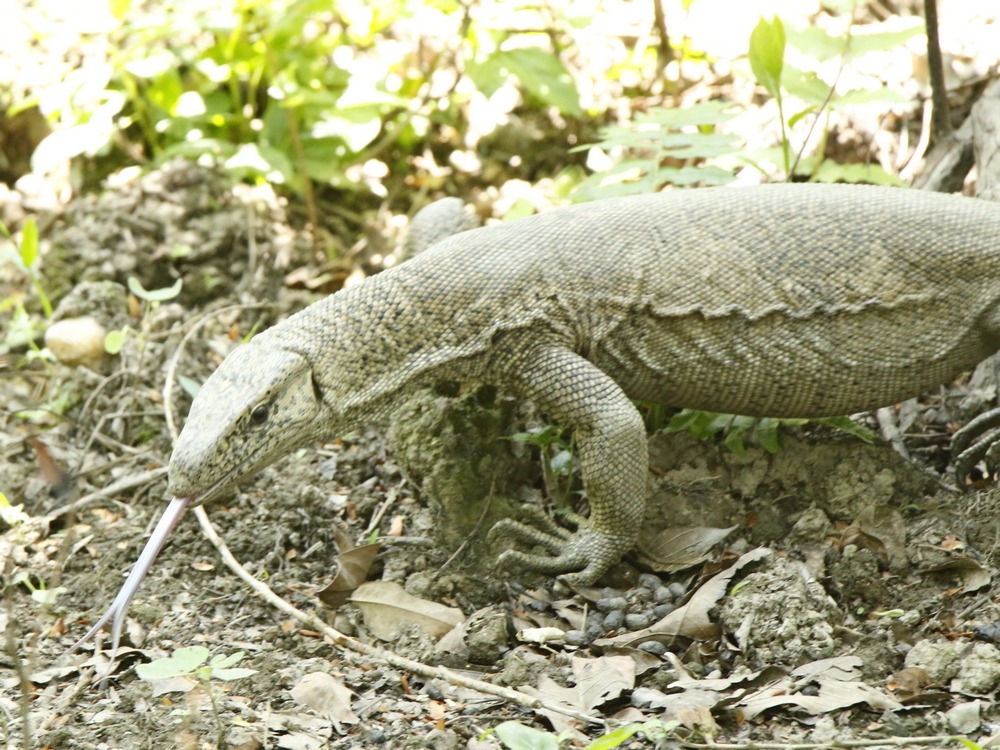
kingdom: Animalia
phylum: Chordata
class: Squamata
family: Varanidae
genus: Varanus
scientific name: Varanus bengalensis
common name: Bengal monitor
